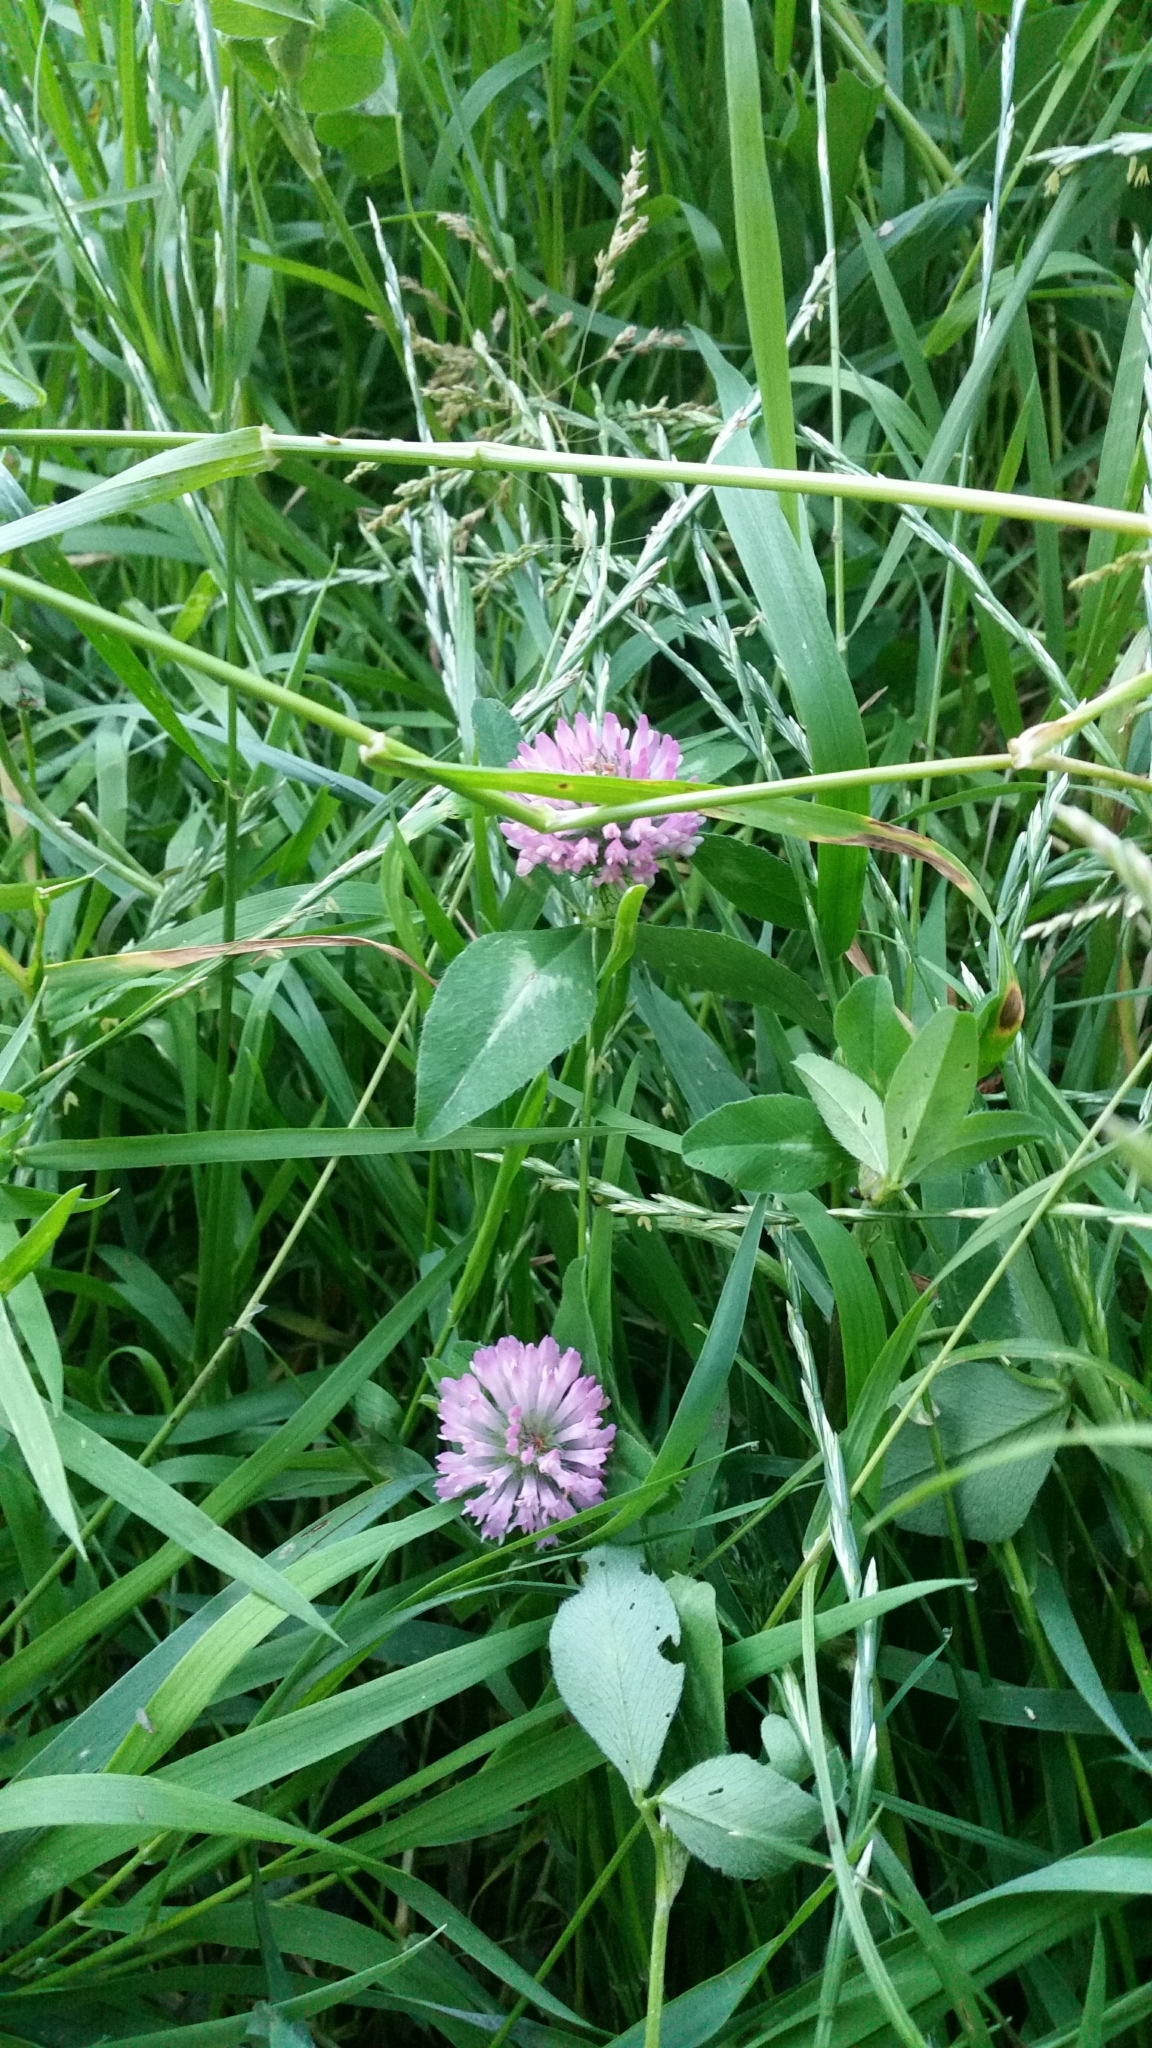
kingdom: Plantae
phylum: Tracheophyta
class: Magnoliopsida
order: Fabales
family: Fabaceae
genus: Trifolium
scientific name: Trifolium pratense
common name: Red clover
